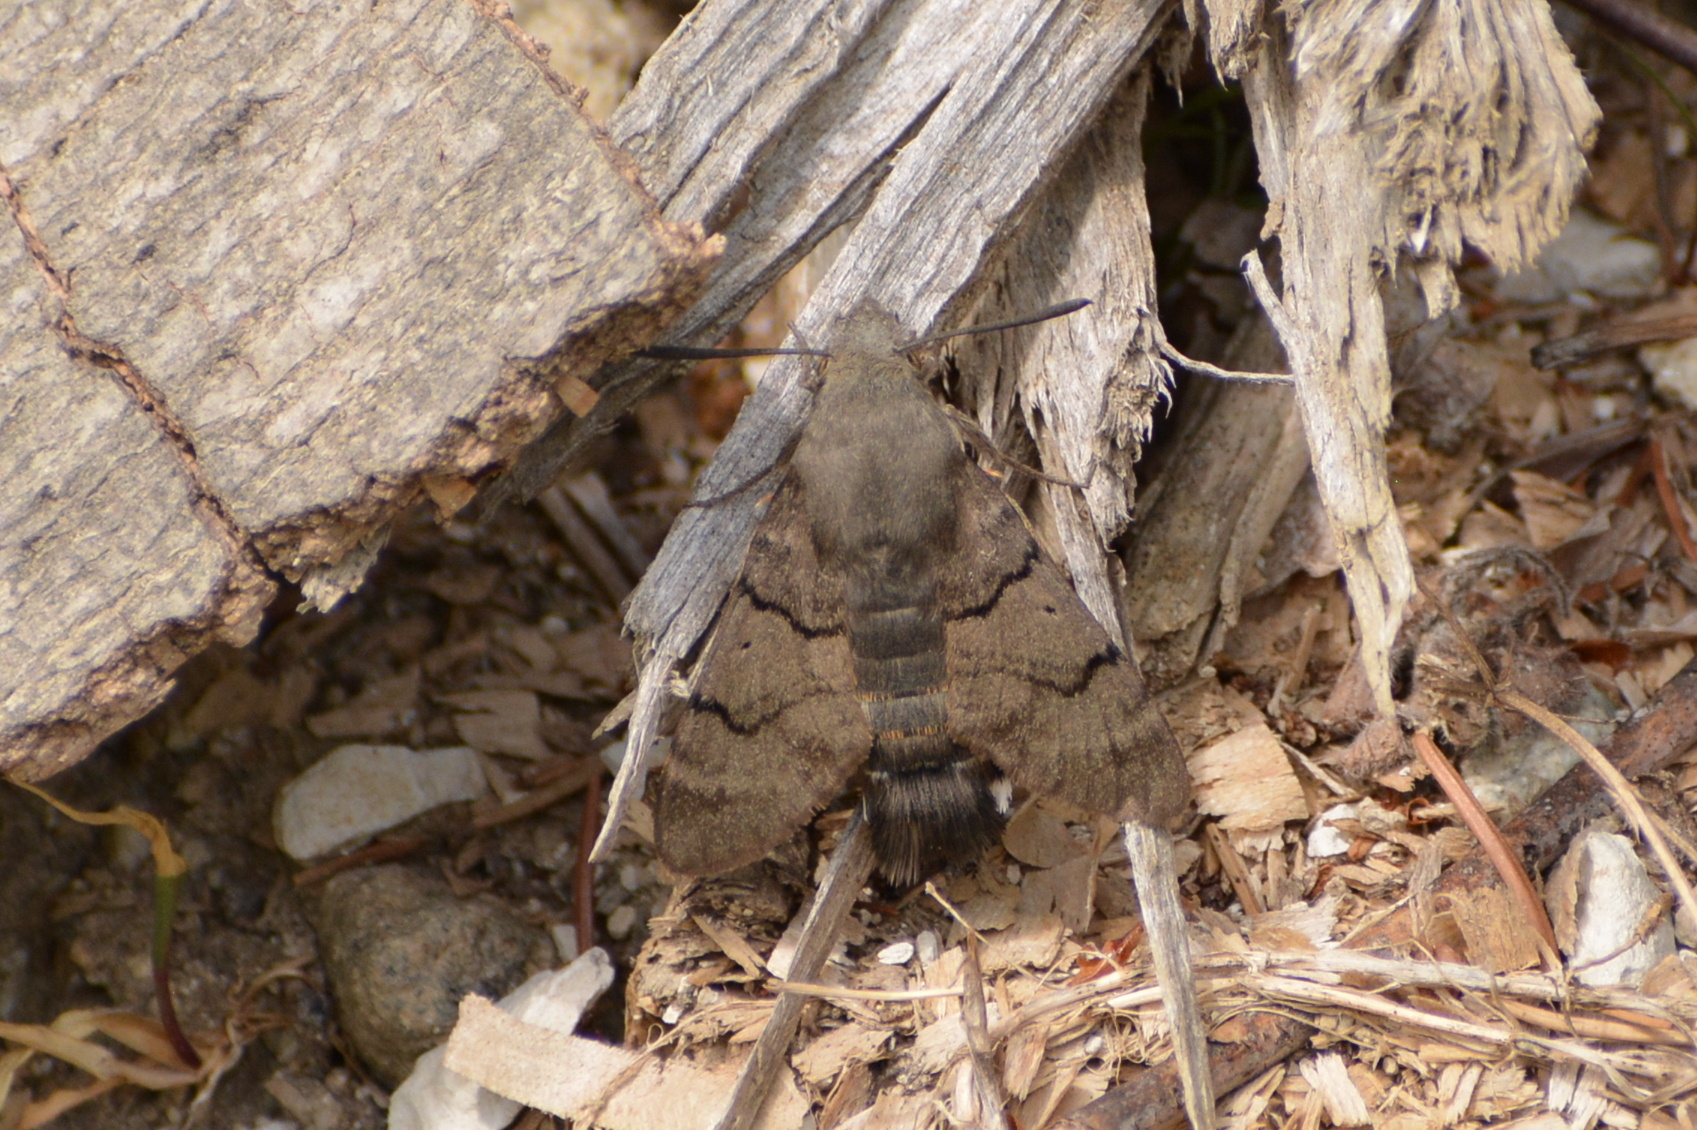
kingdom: Animalia
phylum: Arthropoda
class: Insecta
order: Lepidoptera
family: Sphingidae
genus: Macroglossum
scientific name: Macroglossum stellatarum
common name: Humming-bird hawk-moth
